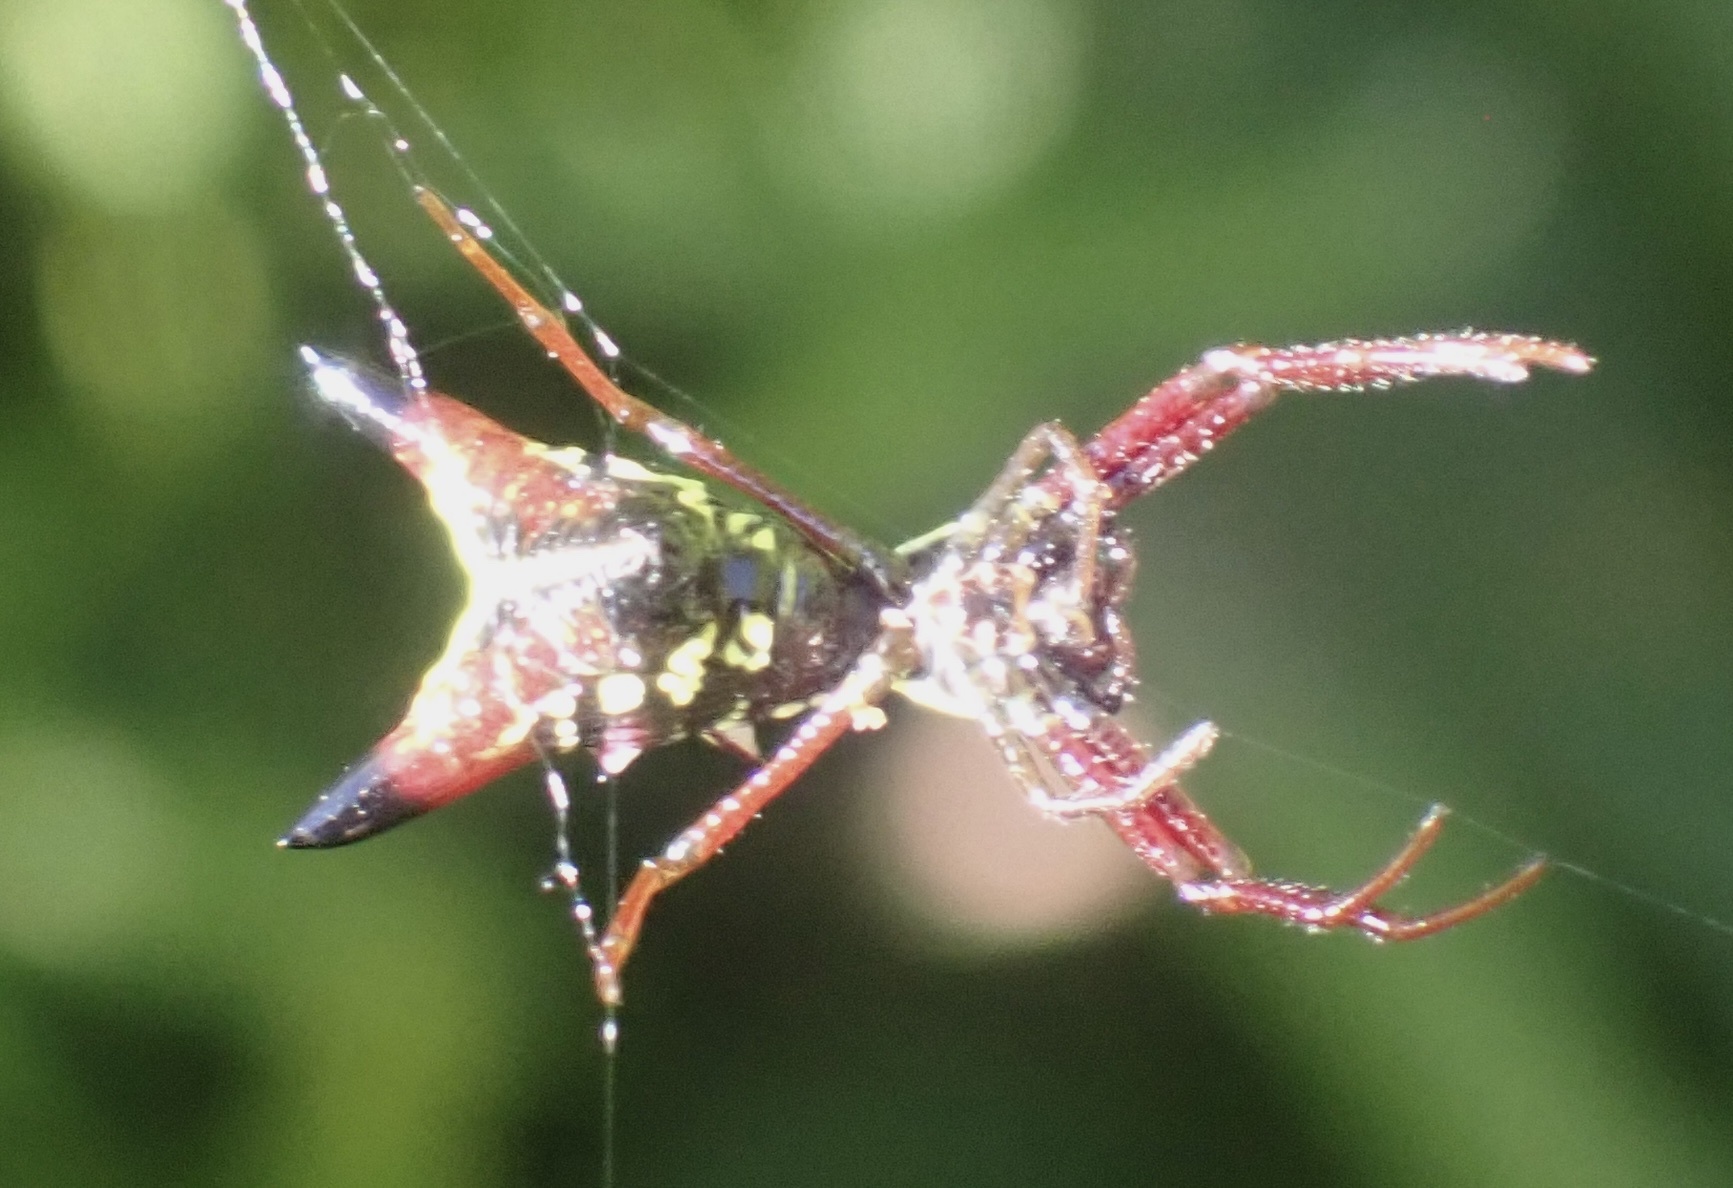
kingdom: Animalia
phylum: Arthropoda
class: Arachnida
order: Araneae
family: Araneidae
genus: Micrathena
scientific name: Micrathena sagittata
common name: Orb weavers
